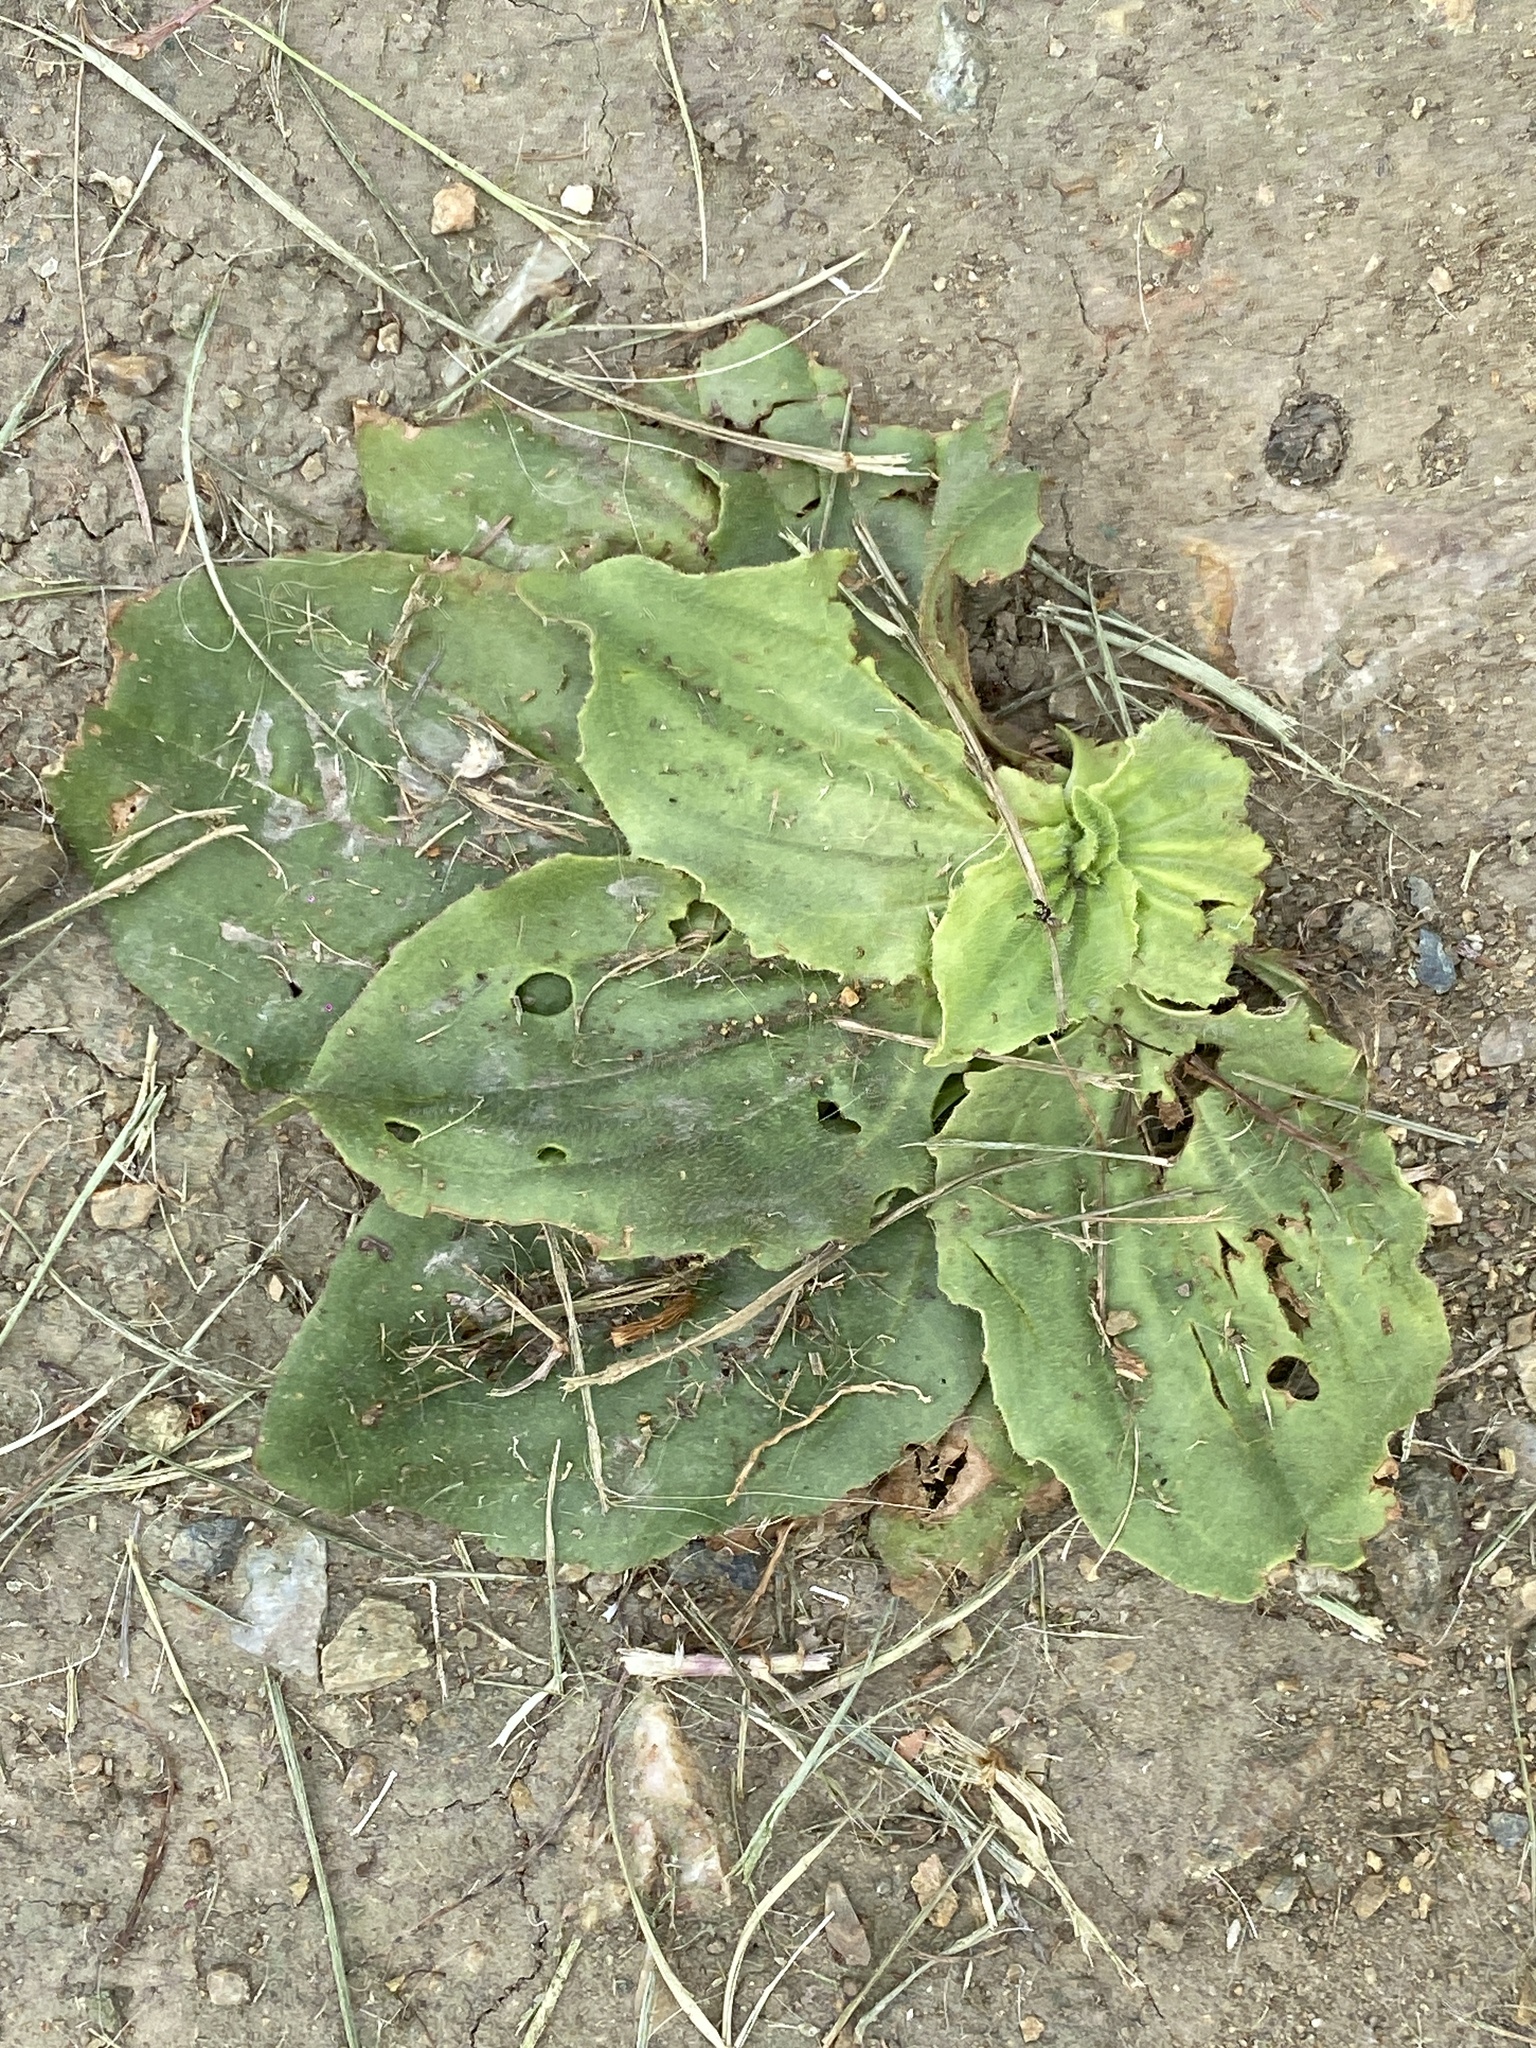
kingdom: Plantae
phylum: Tracheophyta
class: Magnoliopsida
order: Lamiales
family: Plantaginaceae
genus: Plantago
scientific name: Plantago major
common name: Common plantain
